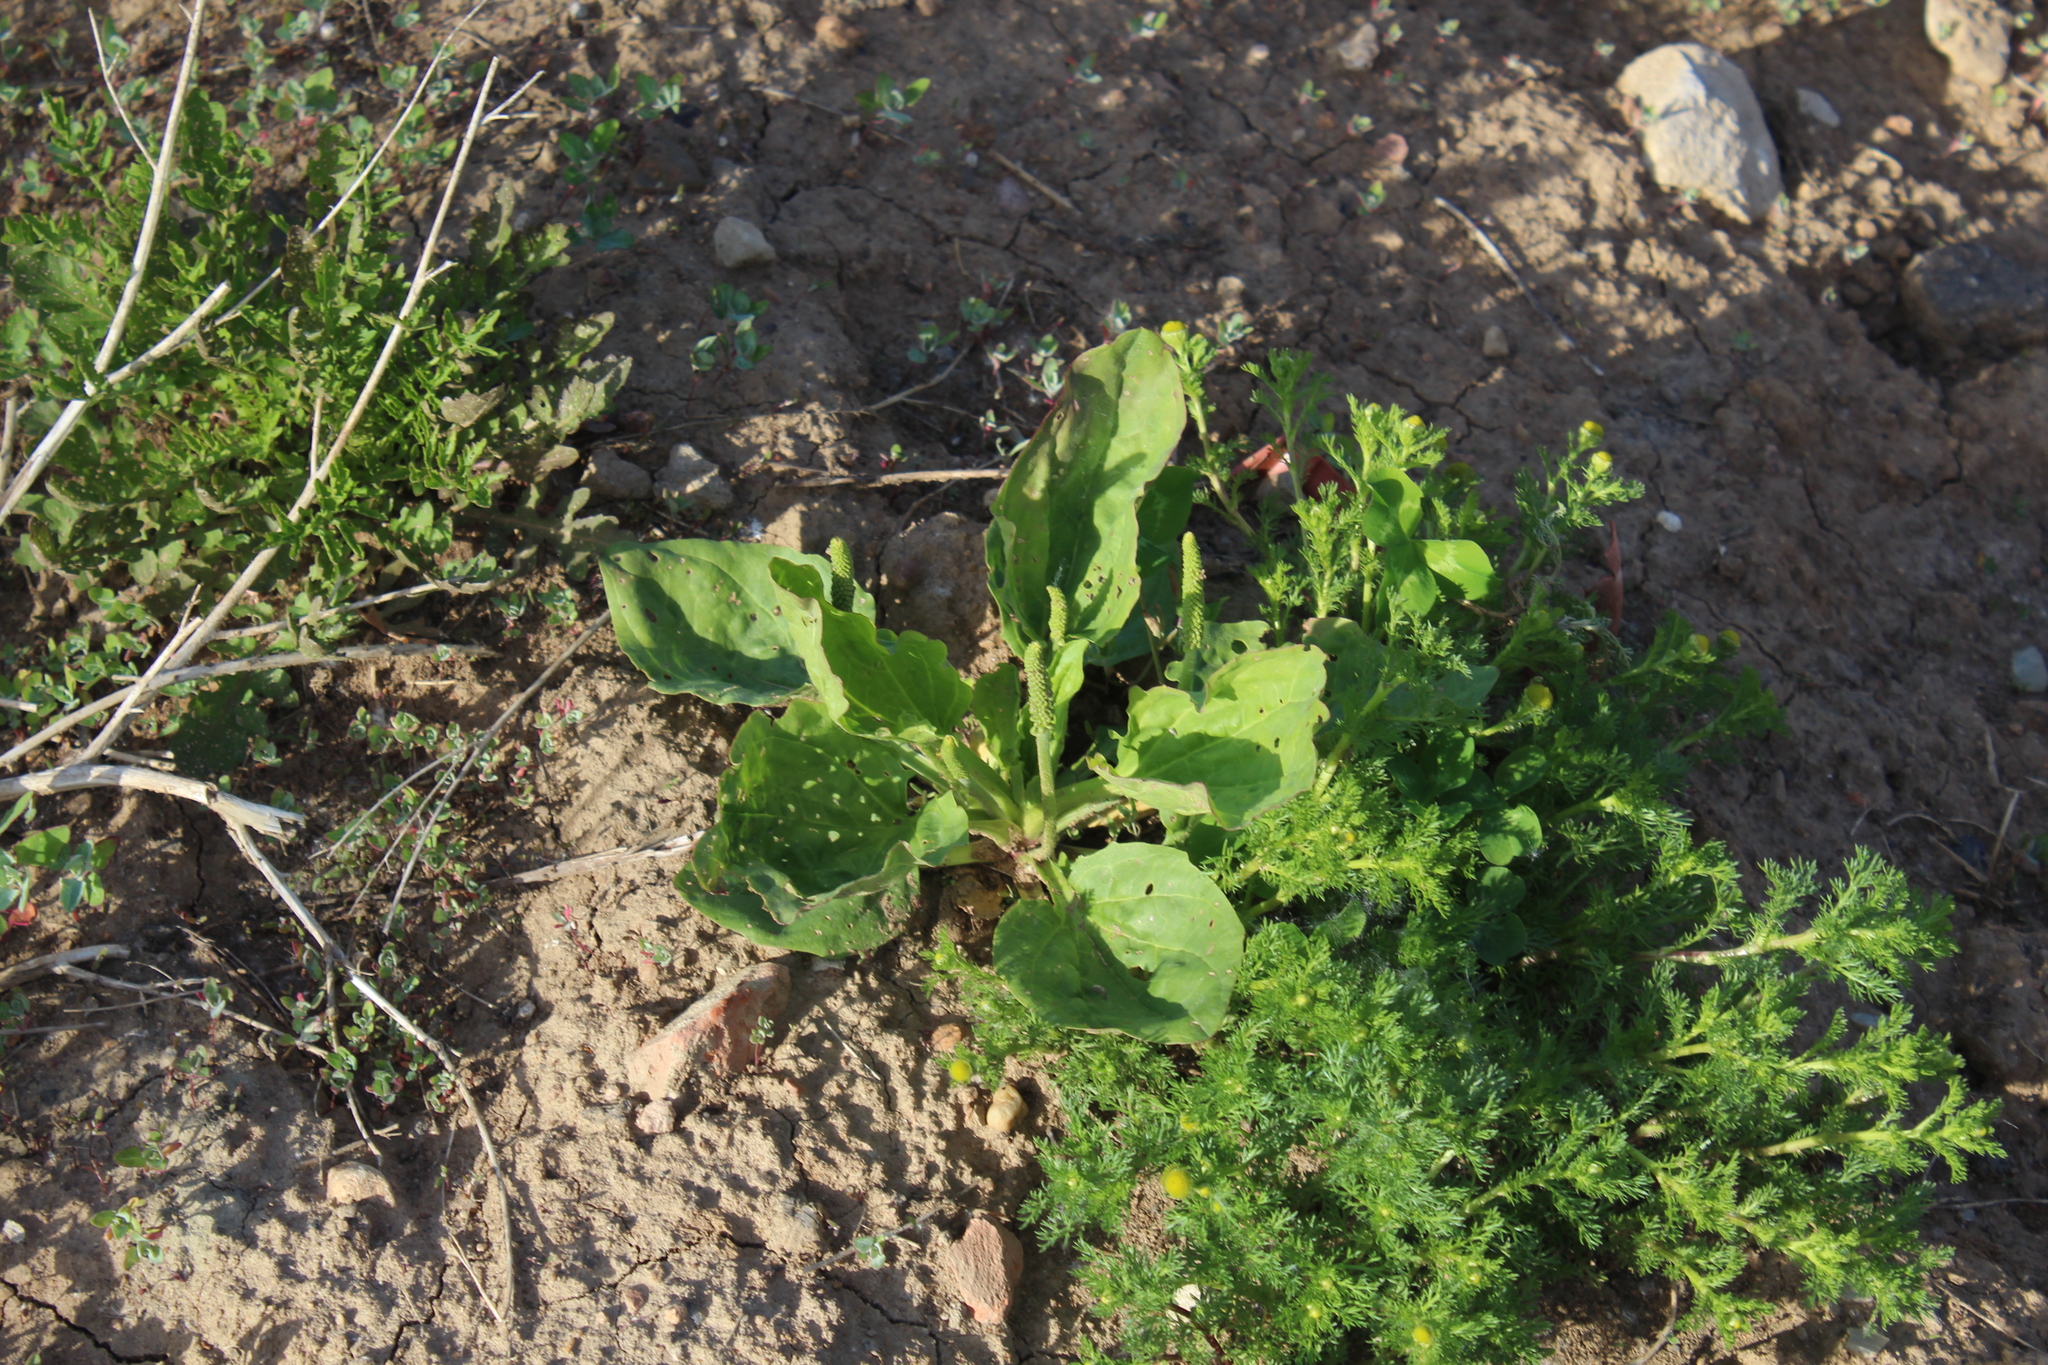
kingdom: Plantae
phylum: Tracheophyta
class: Magnoliopsida
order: Lamiales
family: Plantaginaceae
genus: Plantago
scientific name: Plantago major
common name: Common plantain
